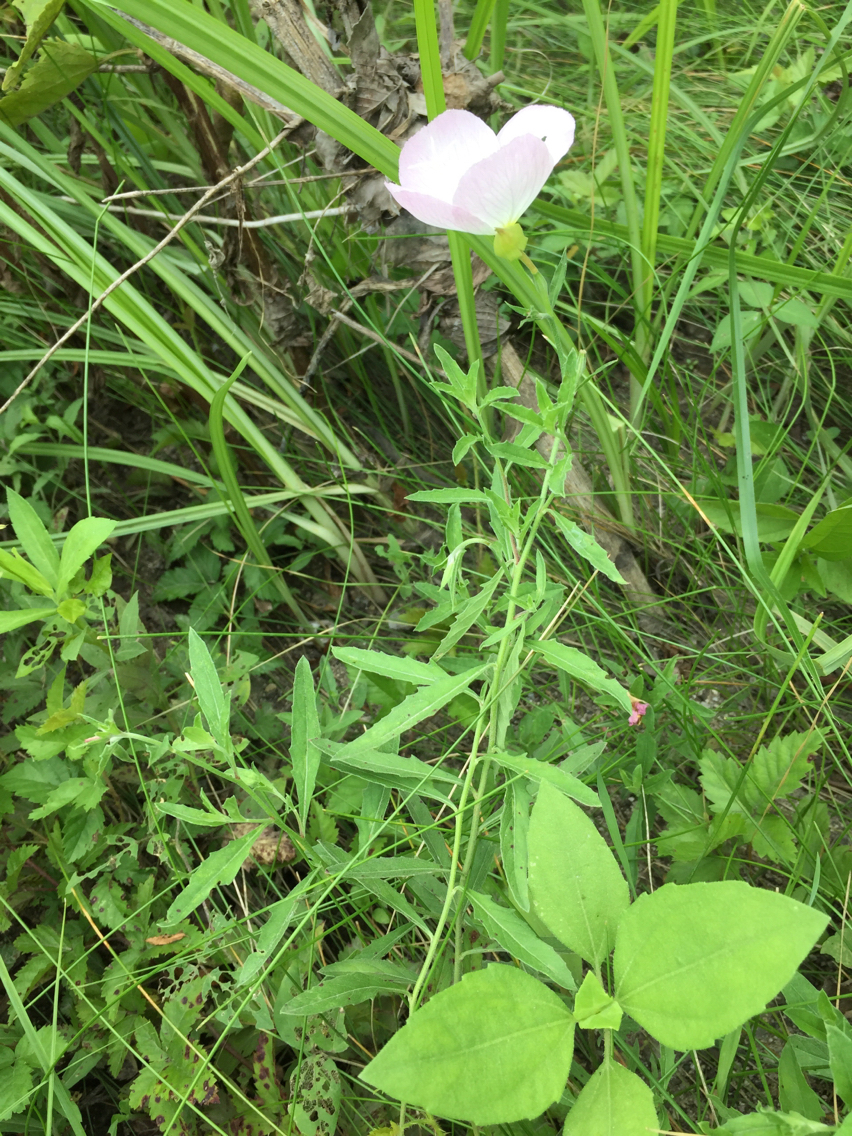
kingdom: Plantae
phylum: Tracheophyta
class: Magnoliopsida
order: Myrtales
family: Onagraceae
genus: Oenothera
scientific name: Oenothera speciosa
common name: White evening-primrose
